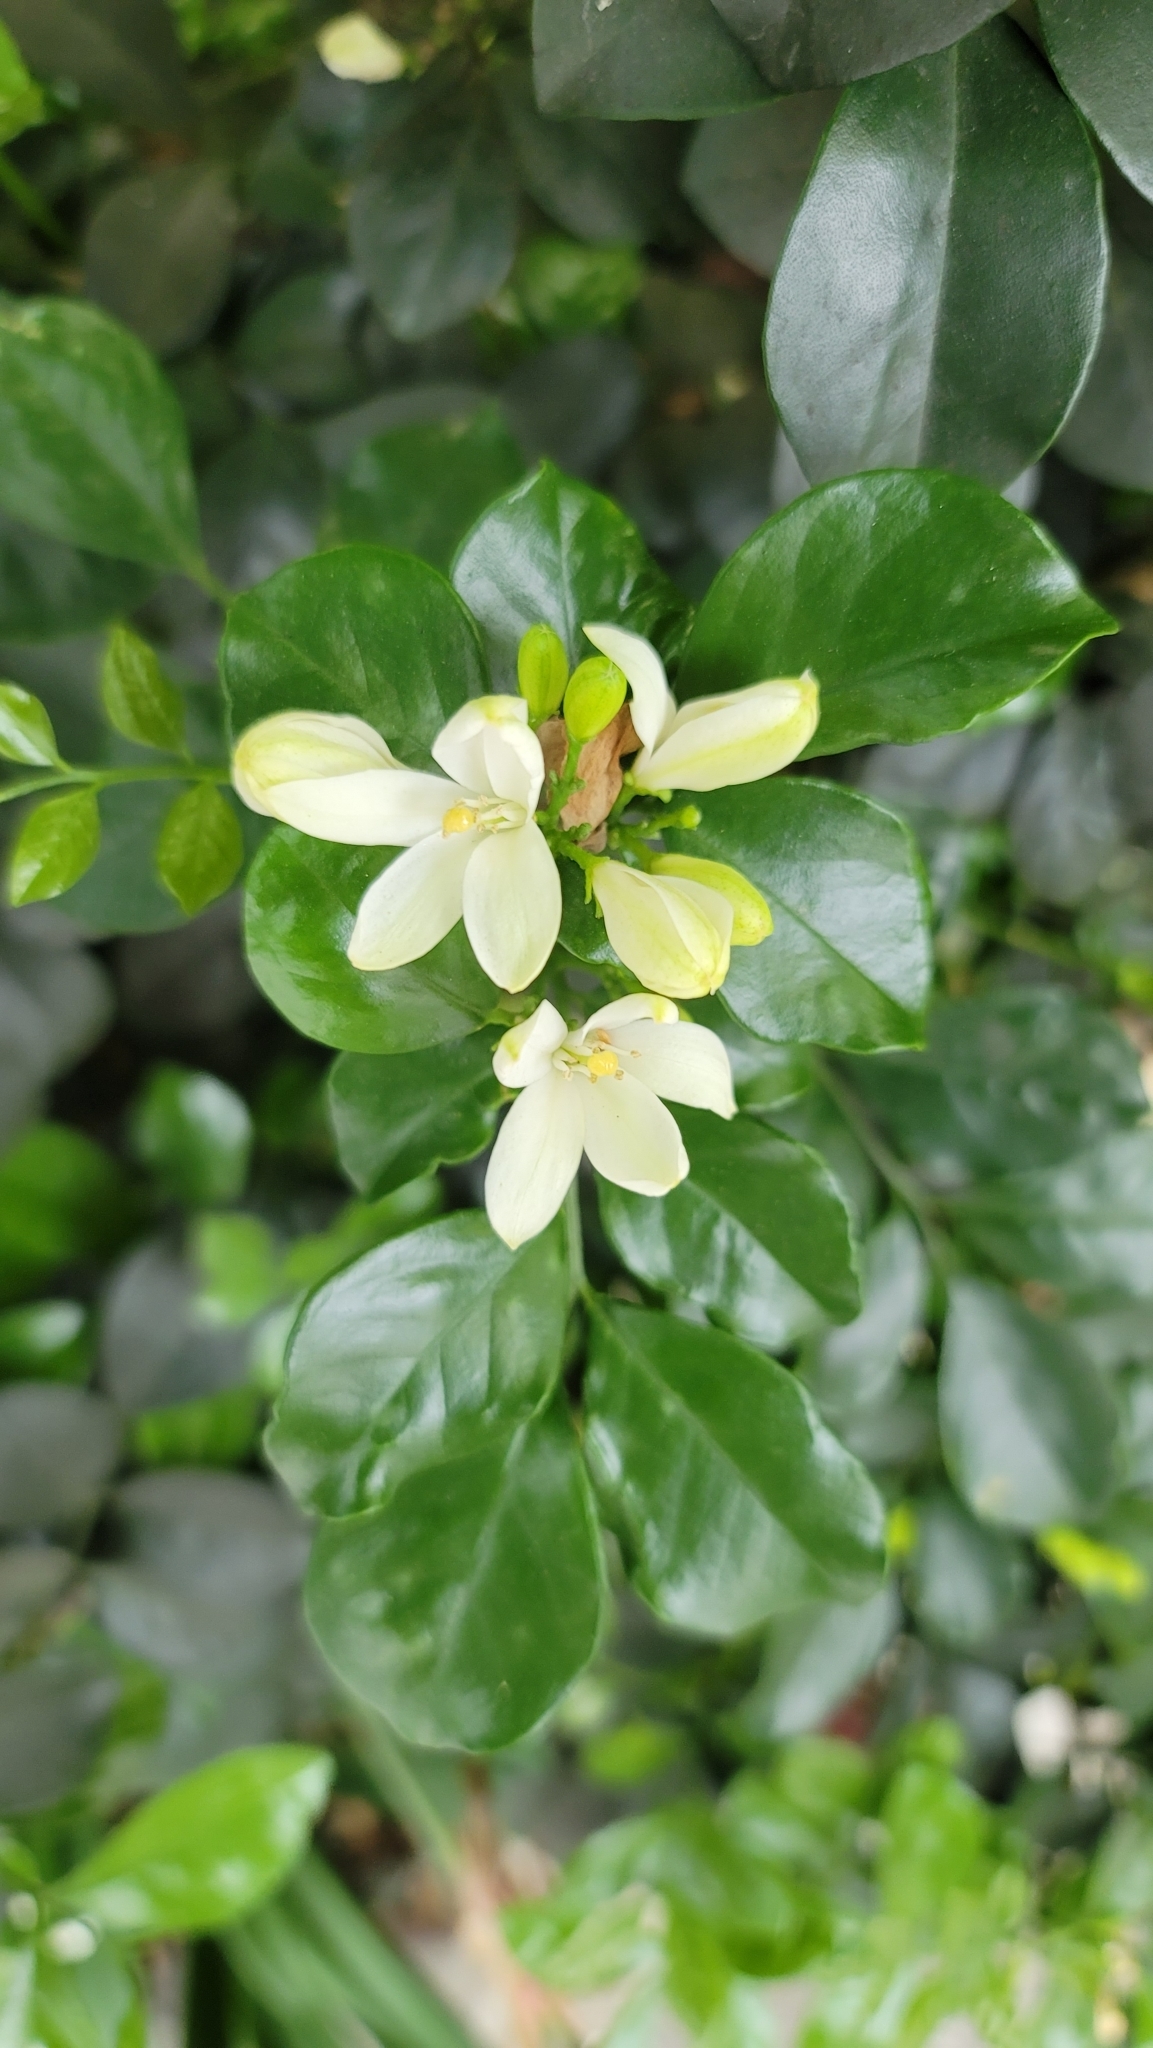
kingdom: Plantae
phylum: Tracheophyta
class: Magnoliopsida
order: Sapindales
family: Rutaceae
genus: Murraya
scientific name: Murraya paniculata
